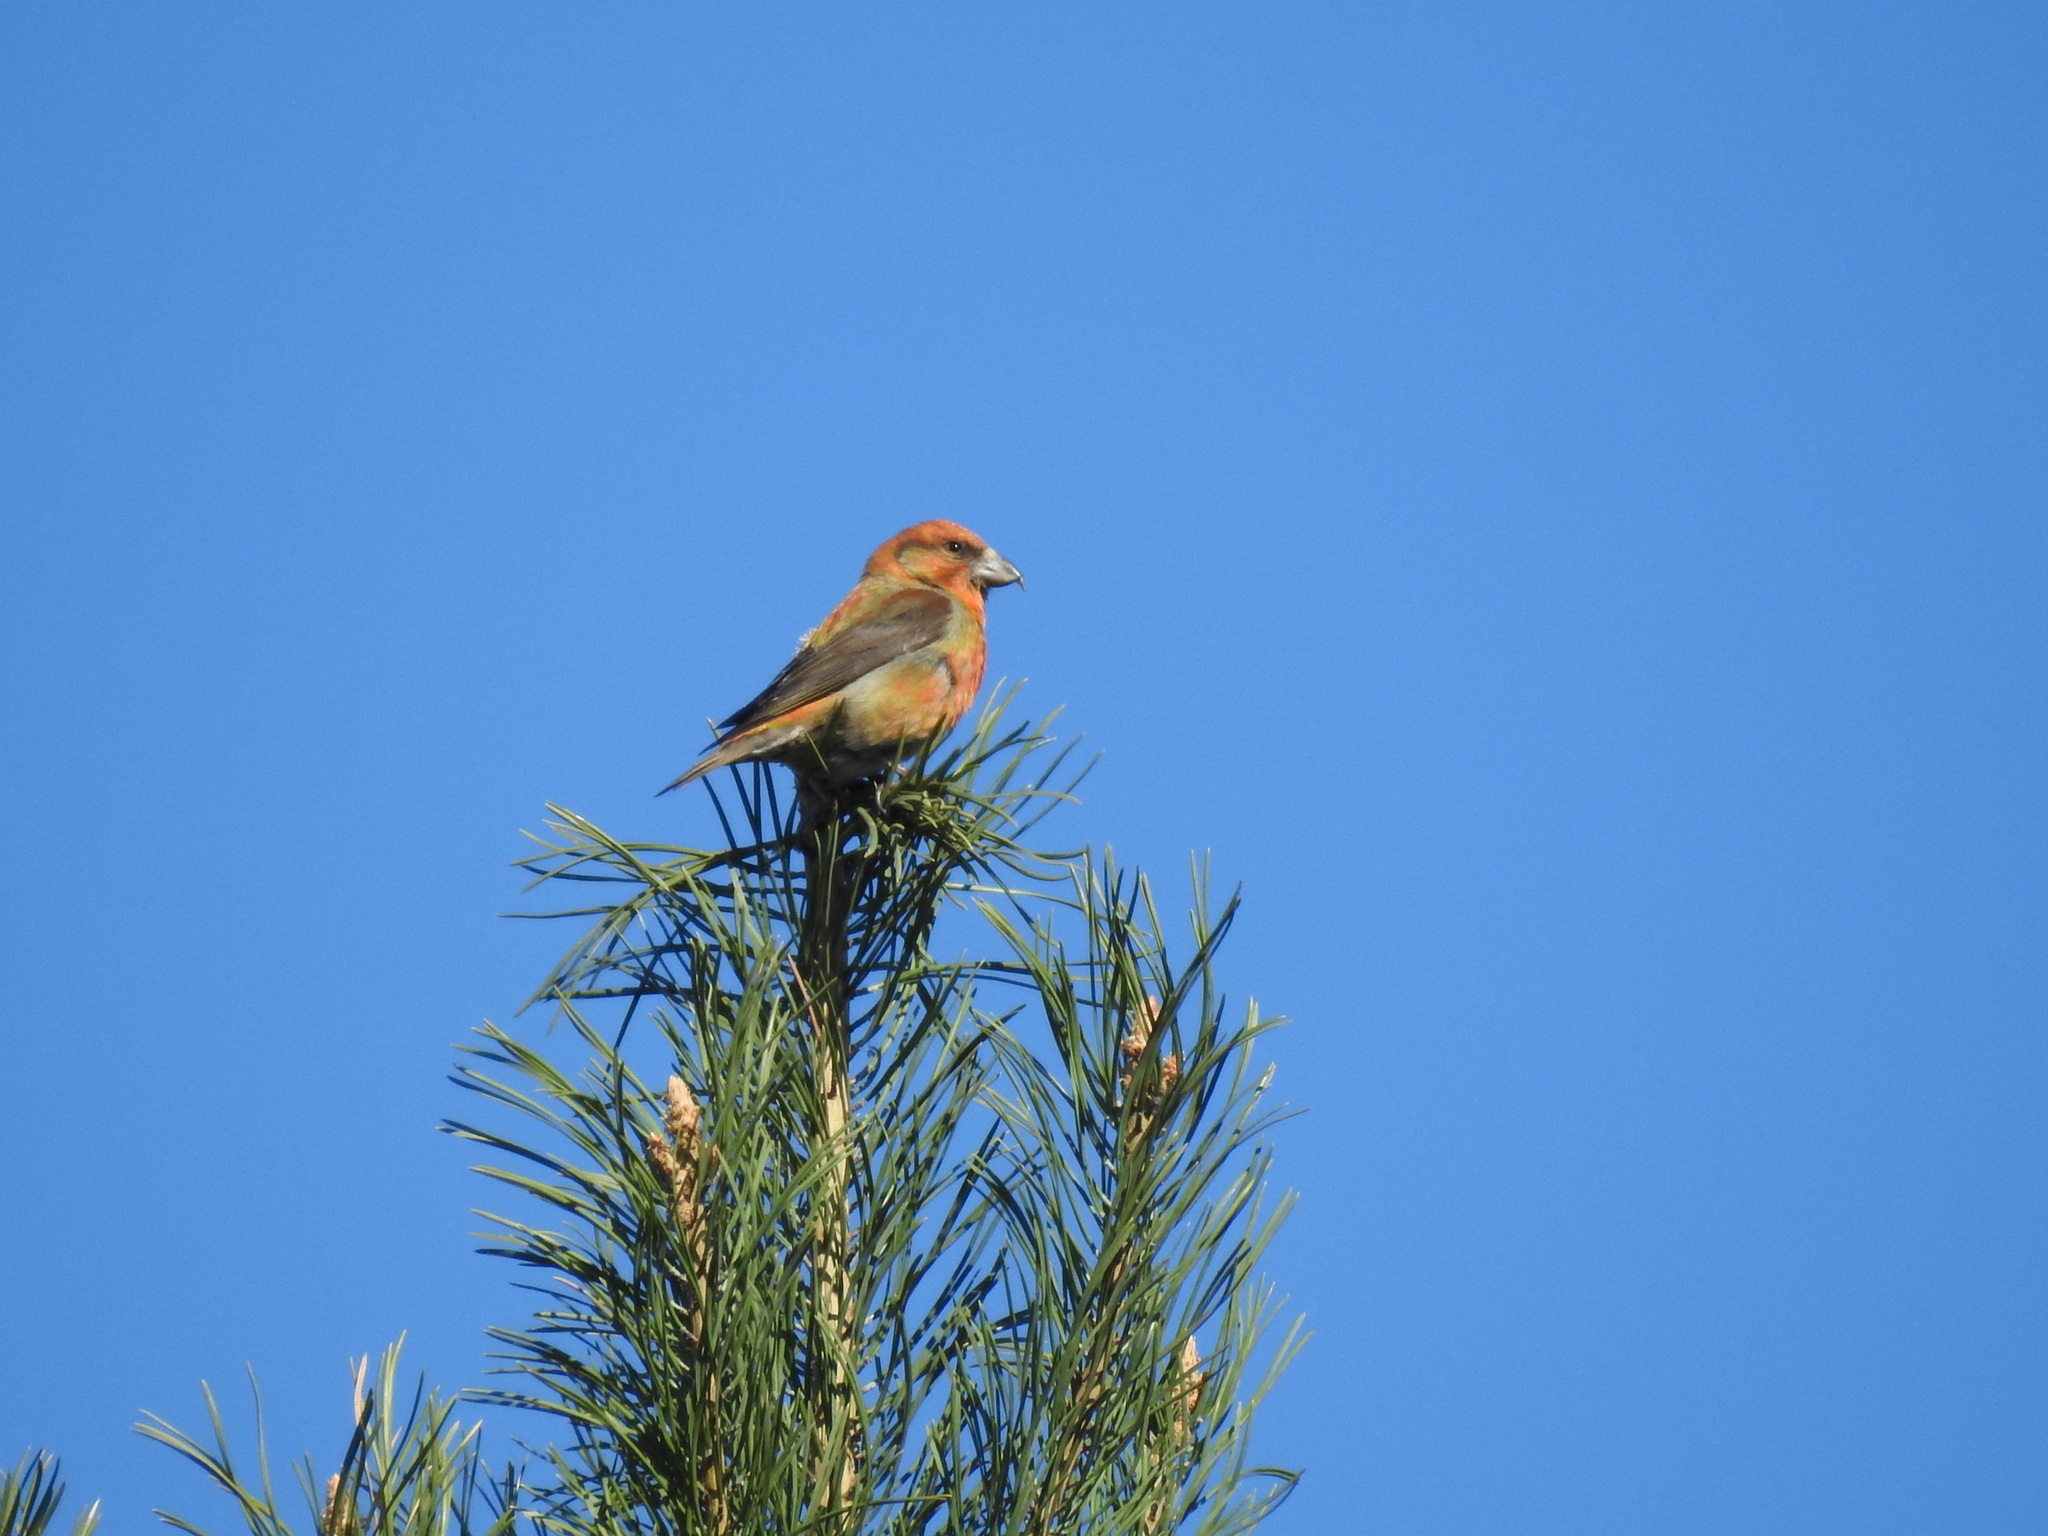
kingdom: Animalia
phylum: Chordata
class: Aves
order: Passeriformes
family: Fringillidae
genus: Loxia
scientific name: Loxia curvirostra
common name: Red crossbill
